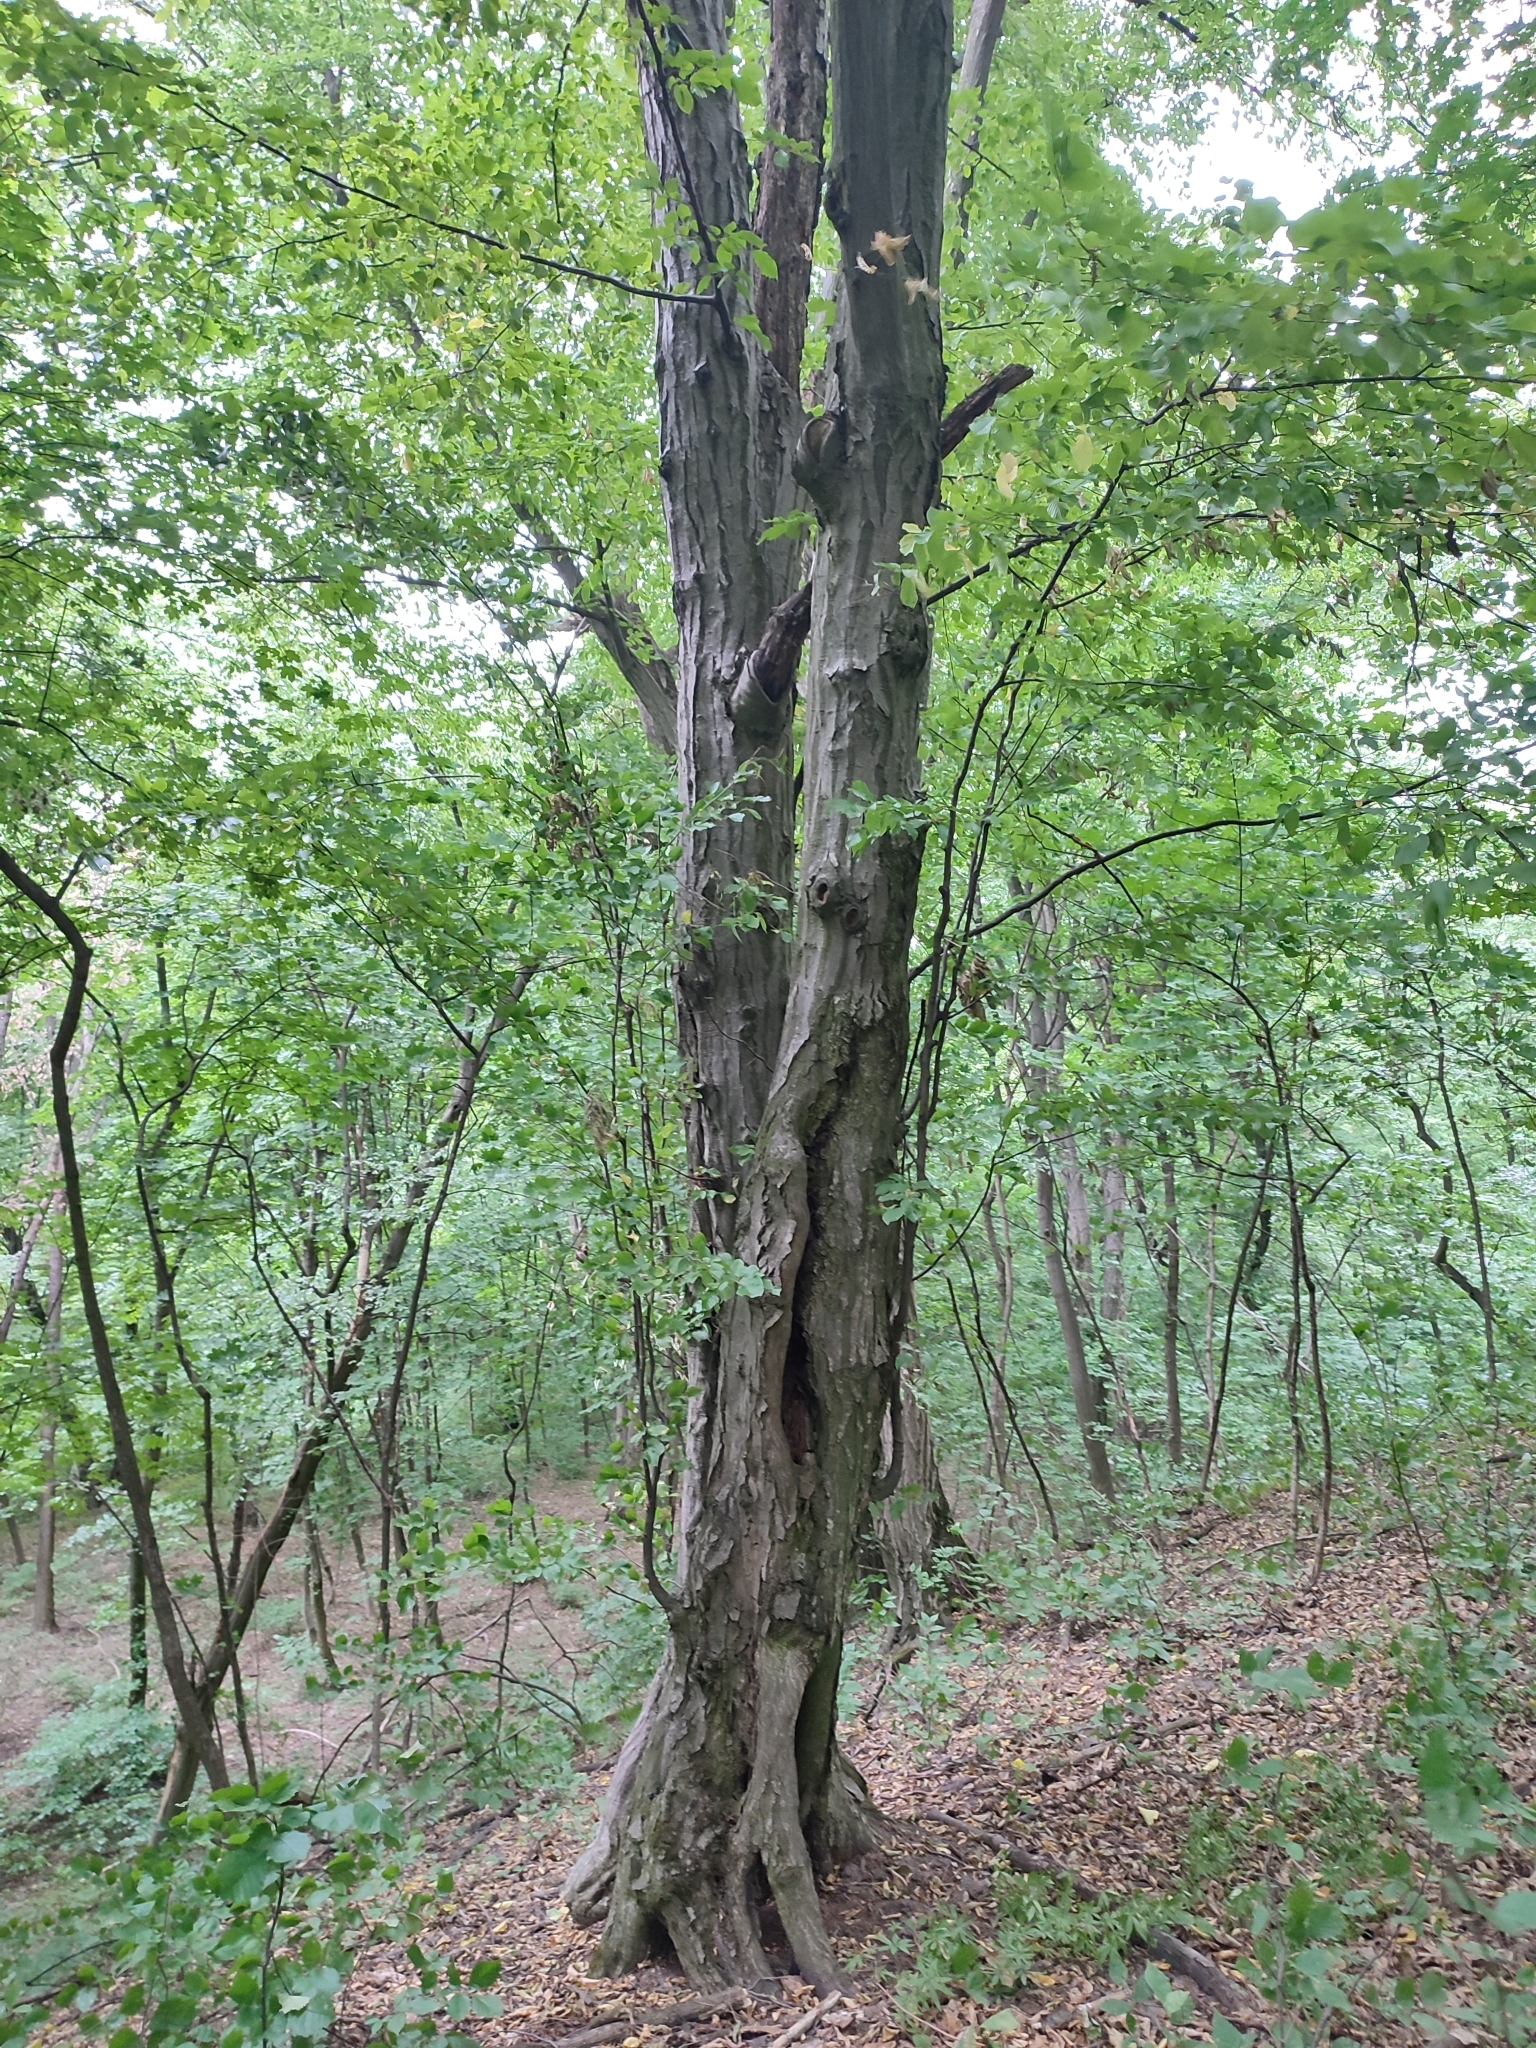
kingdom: Plantae
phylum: Tracheophyta
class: Magnoliopsida
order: Fagales
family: Betulaceae
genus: Carpinus
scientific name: Carpinus betulus
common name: Hornbeam
